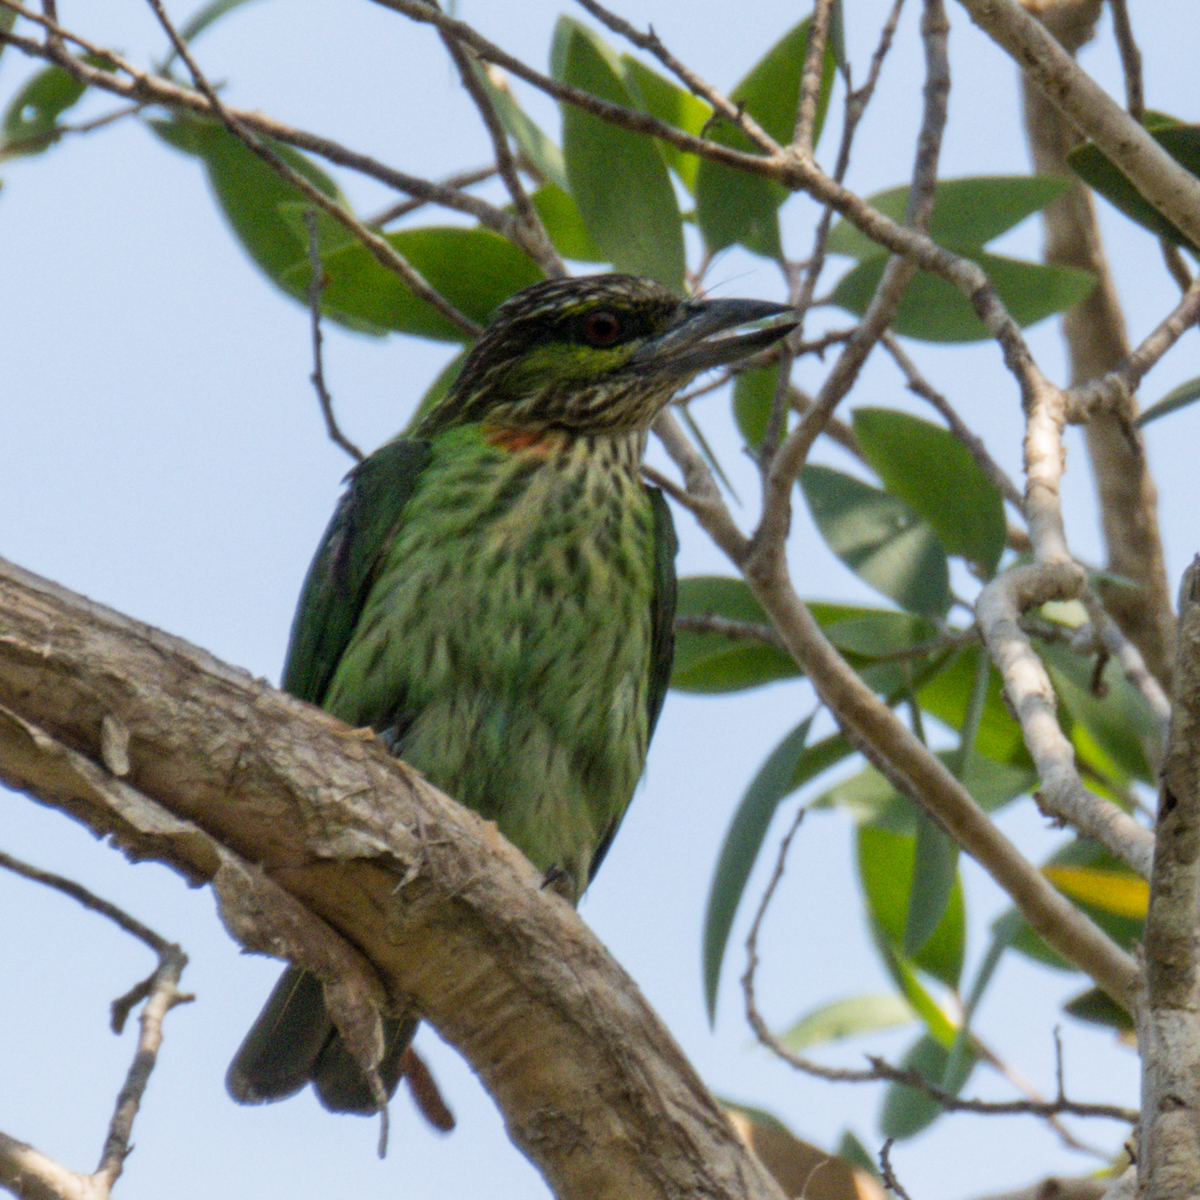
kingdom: Animalia
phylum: Chordata
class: Aves
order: Piciformes
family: Megalaimidae
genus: Psilopogon
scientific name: Psilopogon faiostrictus
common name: Green-eared barbet
